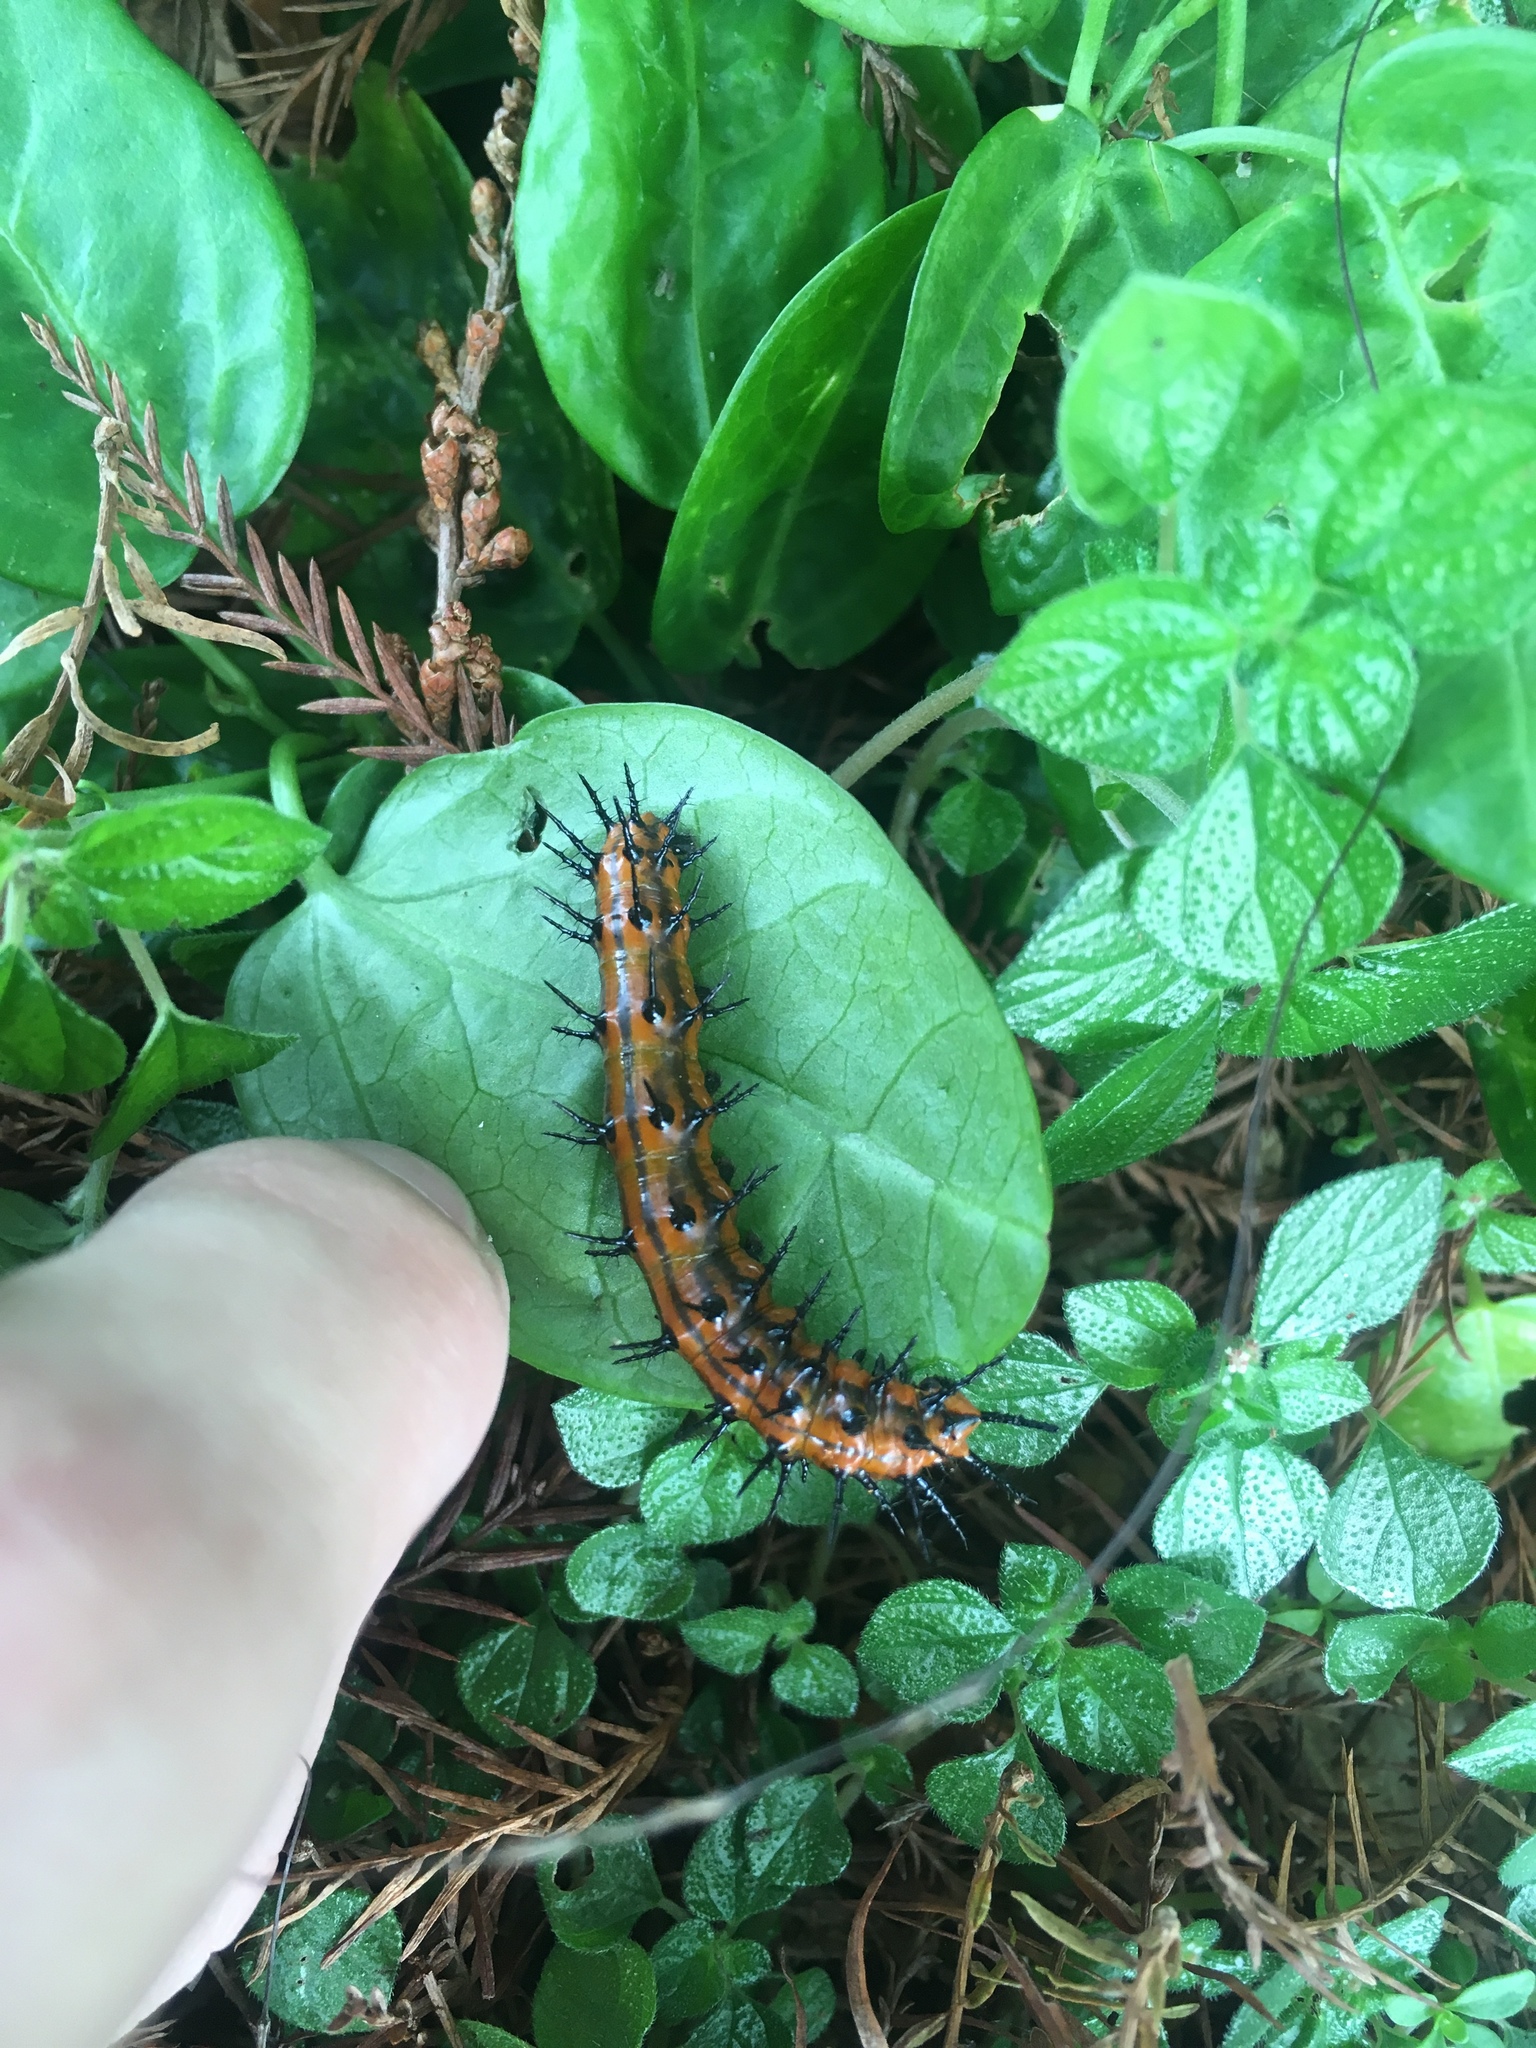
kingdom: Animalia
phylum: Arthropoda
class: Insecta
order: Lepidoptera
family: Nymphalidae
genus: Dione
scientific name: Dione vanillae
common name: Gulf fritillary
